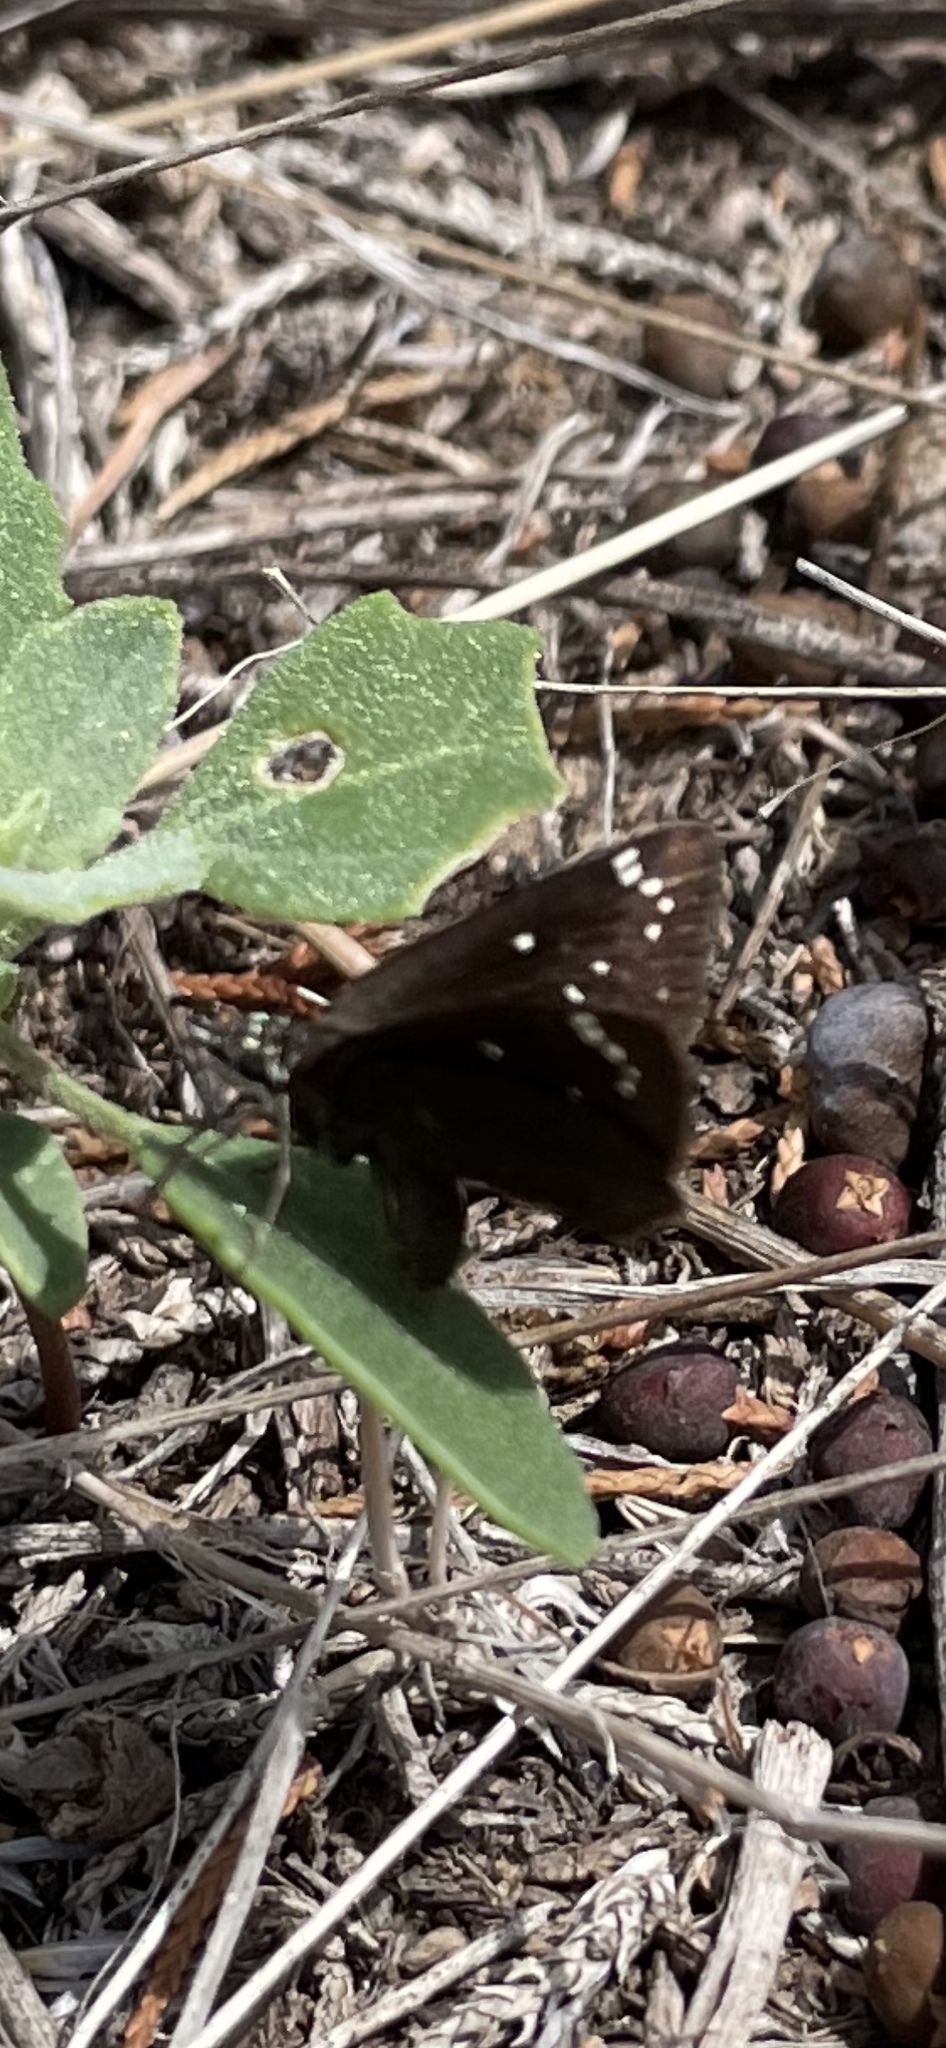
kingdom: Animalia
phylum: Arthropoda
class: Insecta
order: Lepidoptera
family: Hesperiidae
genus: Pholisora
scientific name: Pholisora catullus
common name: Common sootywing
